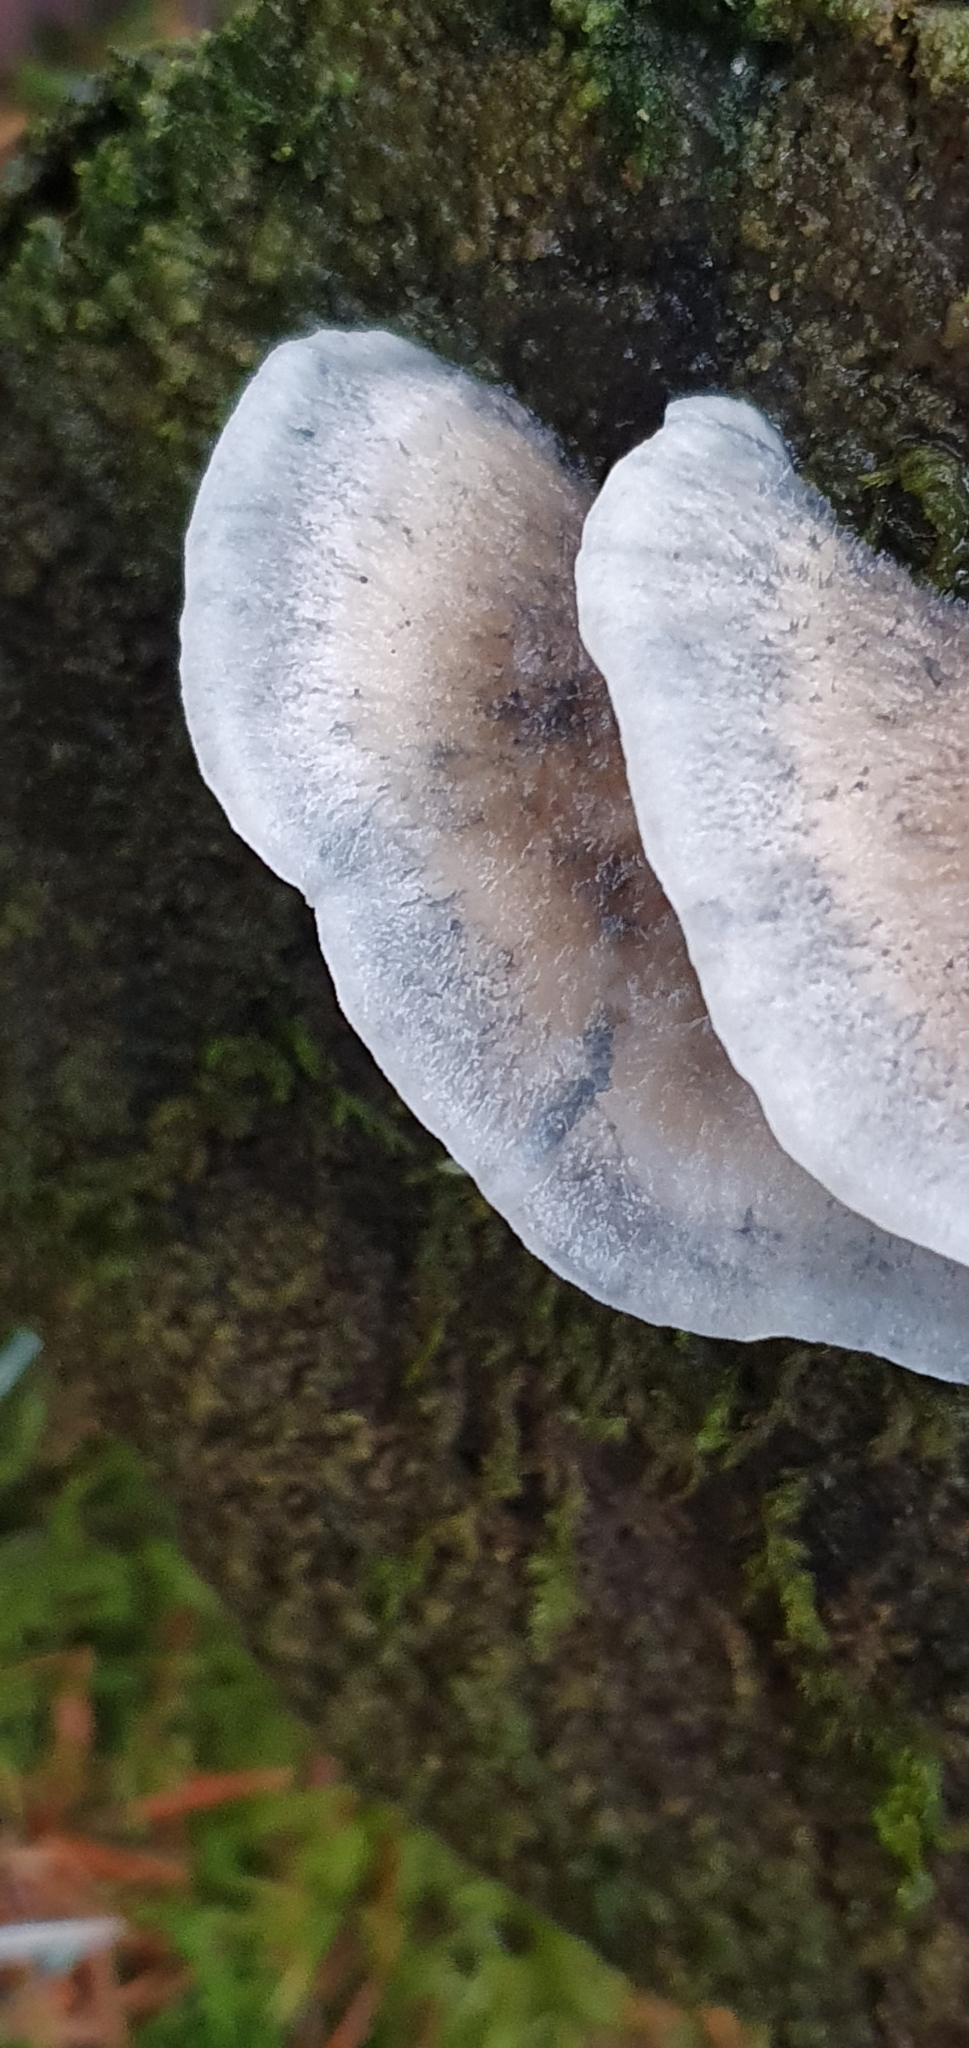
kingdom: Fungi
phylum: Basidiomycota
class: Agaricomycetes
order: Polyporales
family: Polyporaceae
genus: Cyanosporus
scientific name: Cyanosporus caesius
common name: Blue cheese polypore
